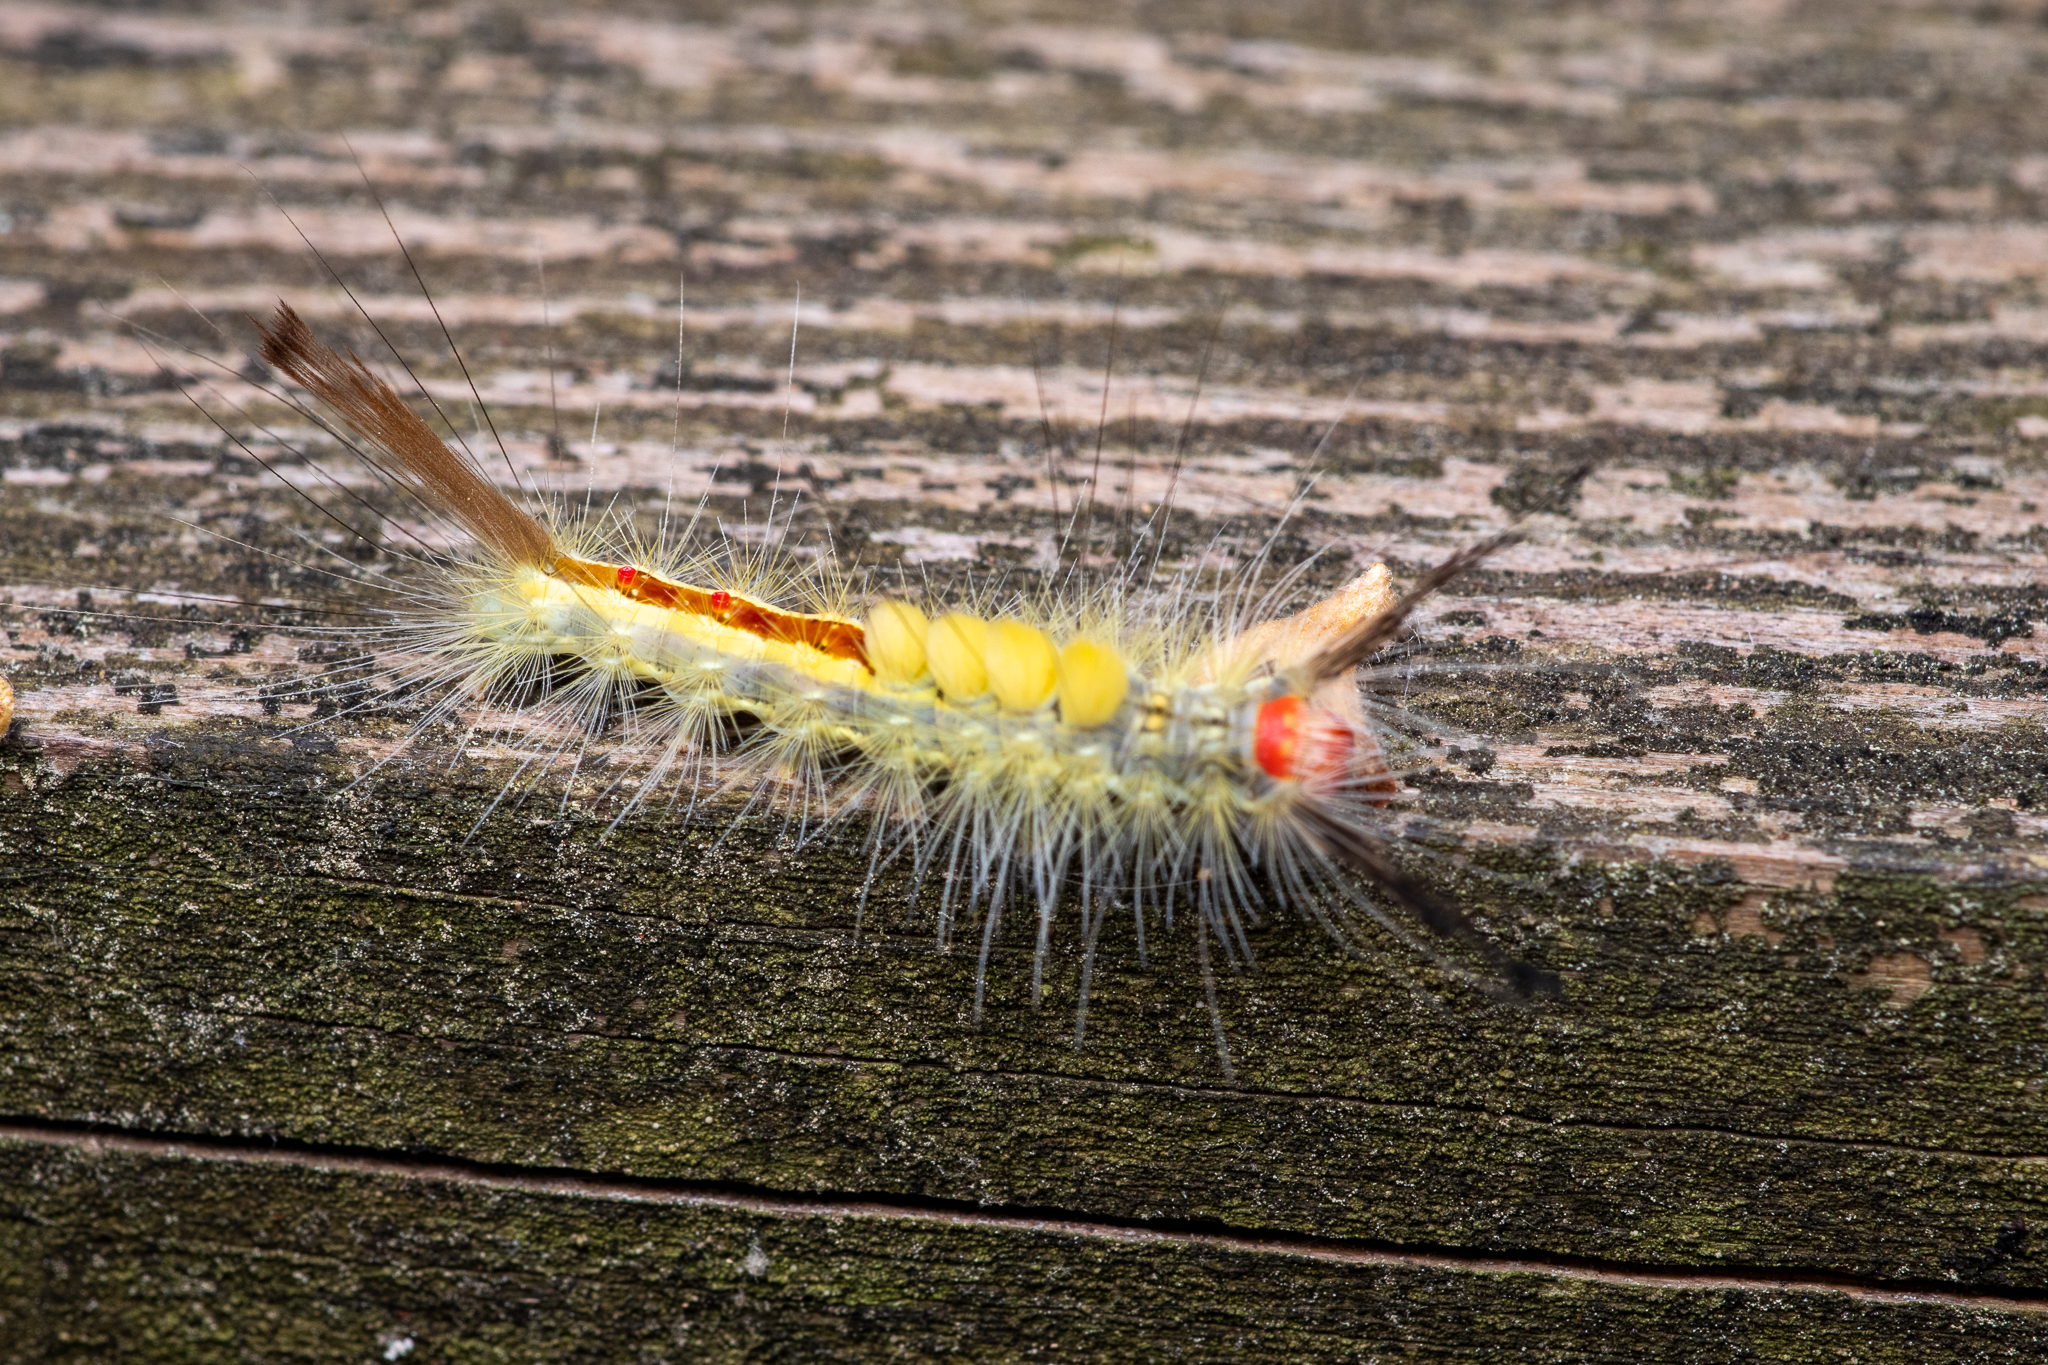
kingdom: Animalia
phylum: Arthropoda
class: Insecta
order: Lepidoptera
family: Erebidae
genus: Orgyia
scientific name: Orgyia leucostigma
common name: White-marked tussock moth
